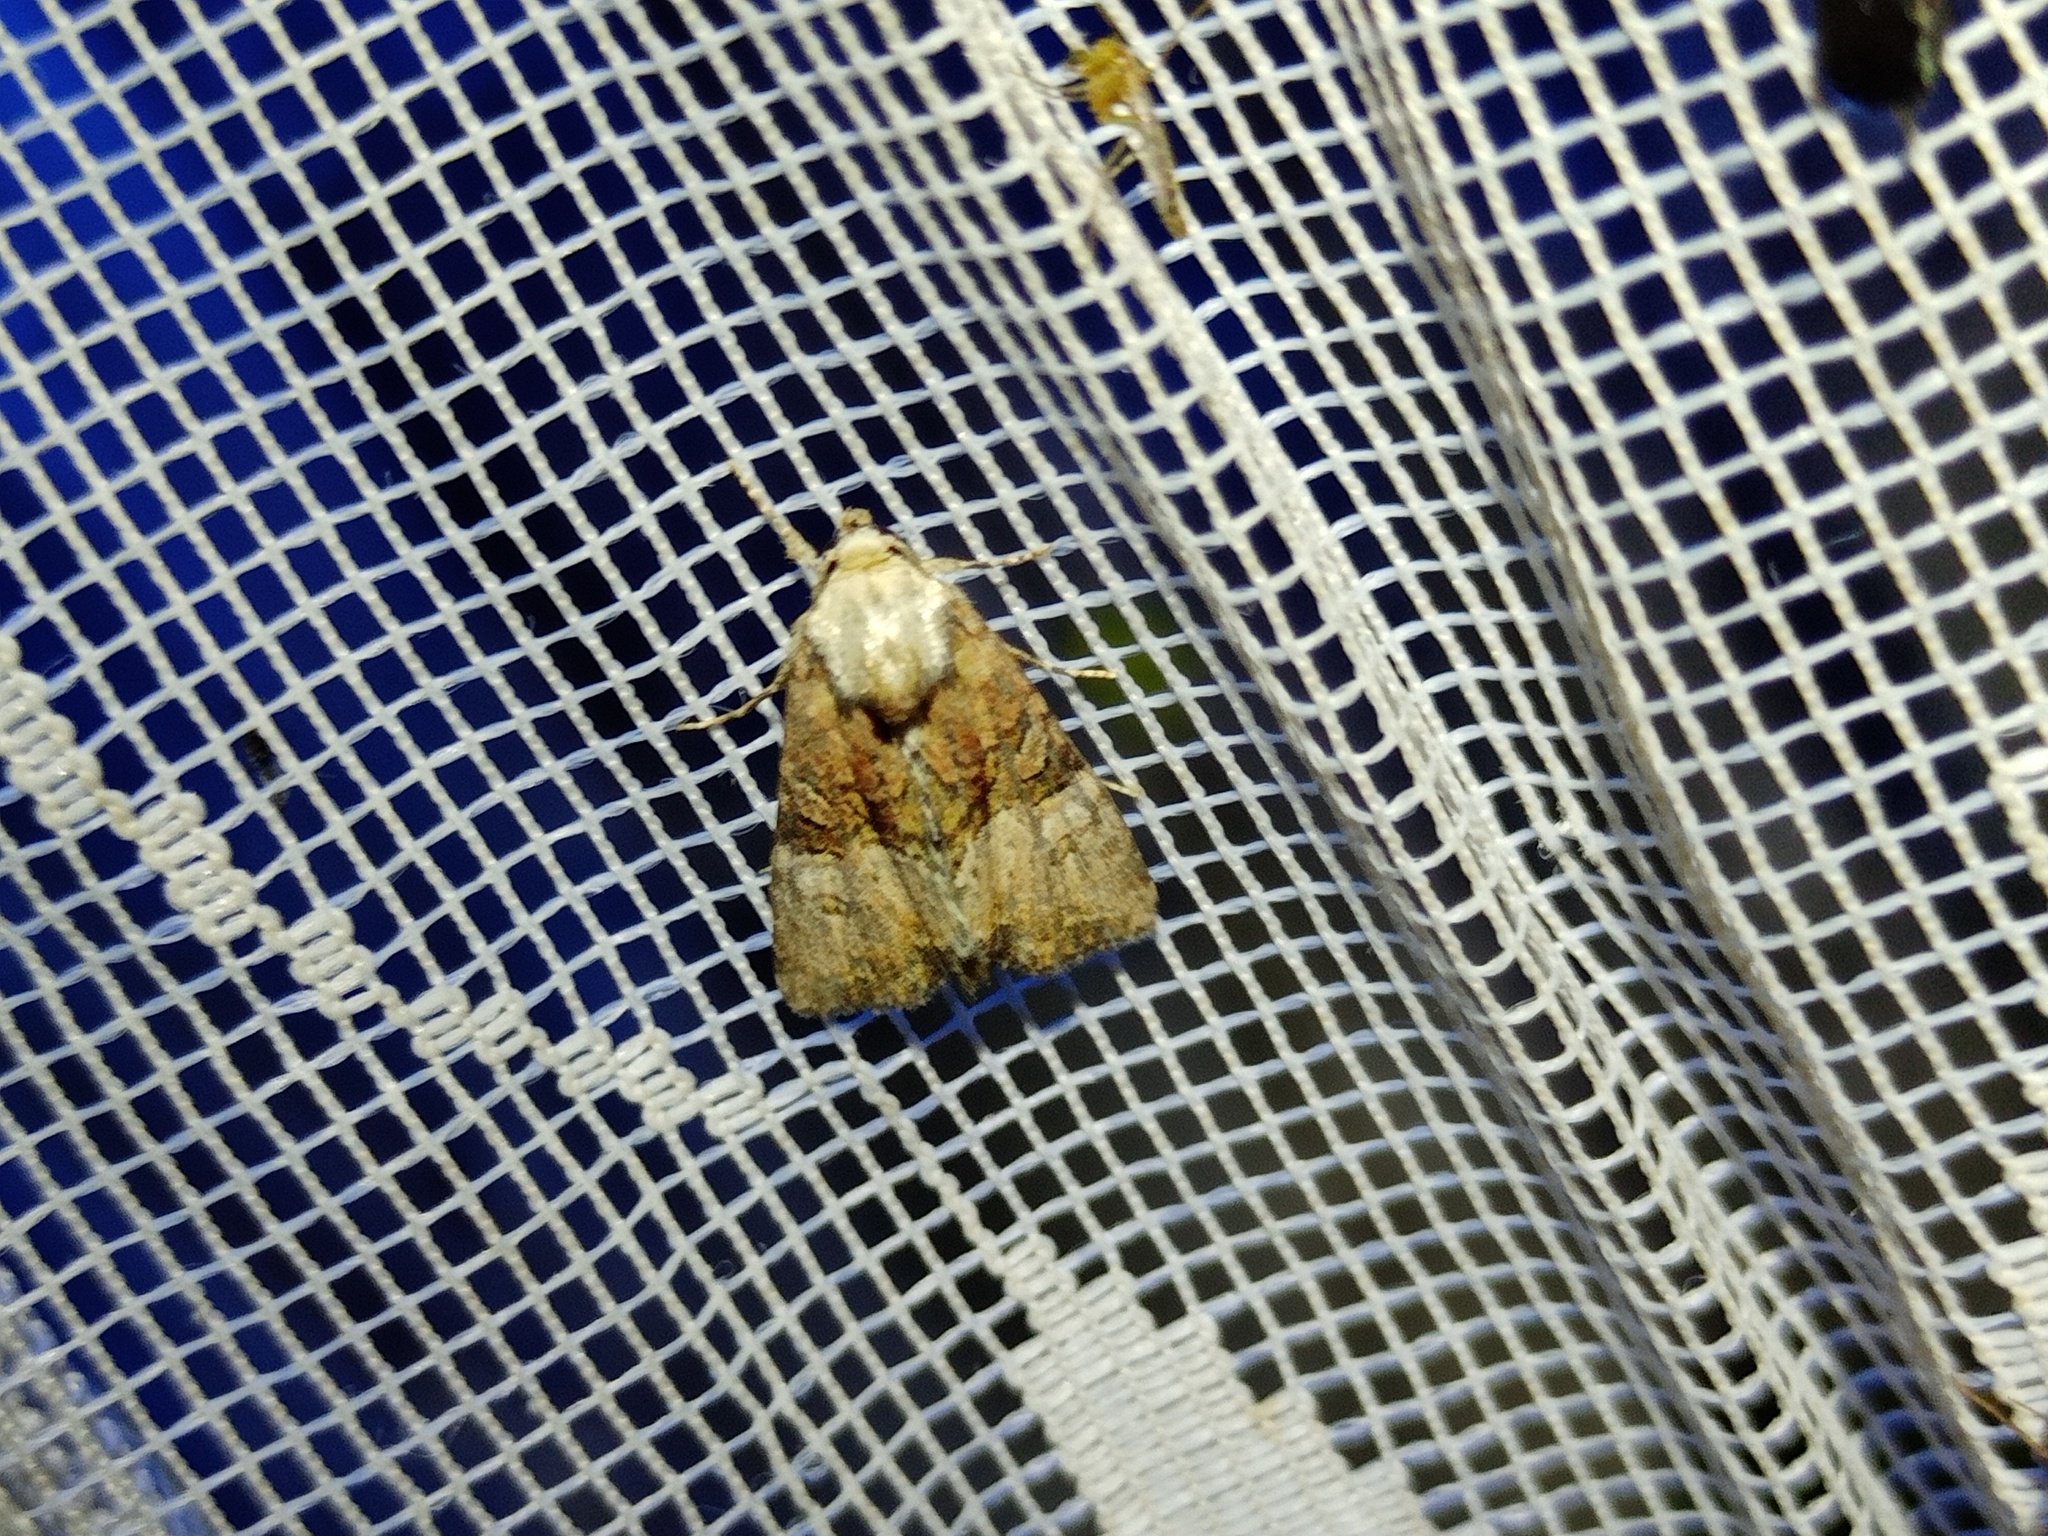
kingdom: Animalia
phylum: Arthropoda
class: Insecta
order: Lepidoptera
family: Noctuidae
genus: Mesoligia
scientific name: Mesoligia furuncula
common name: Cloaked minor
